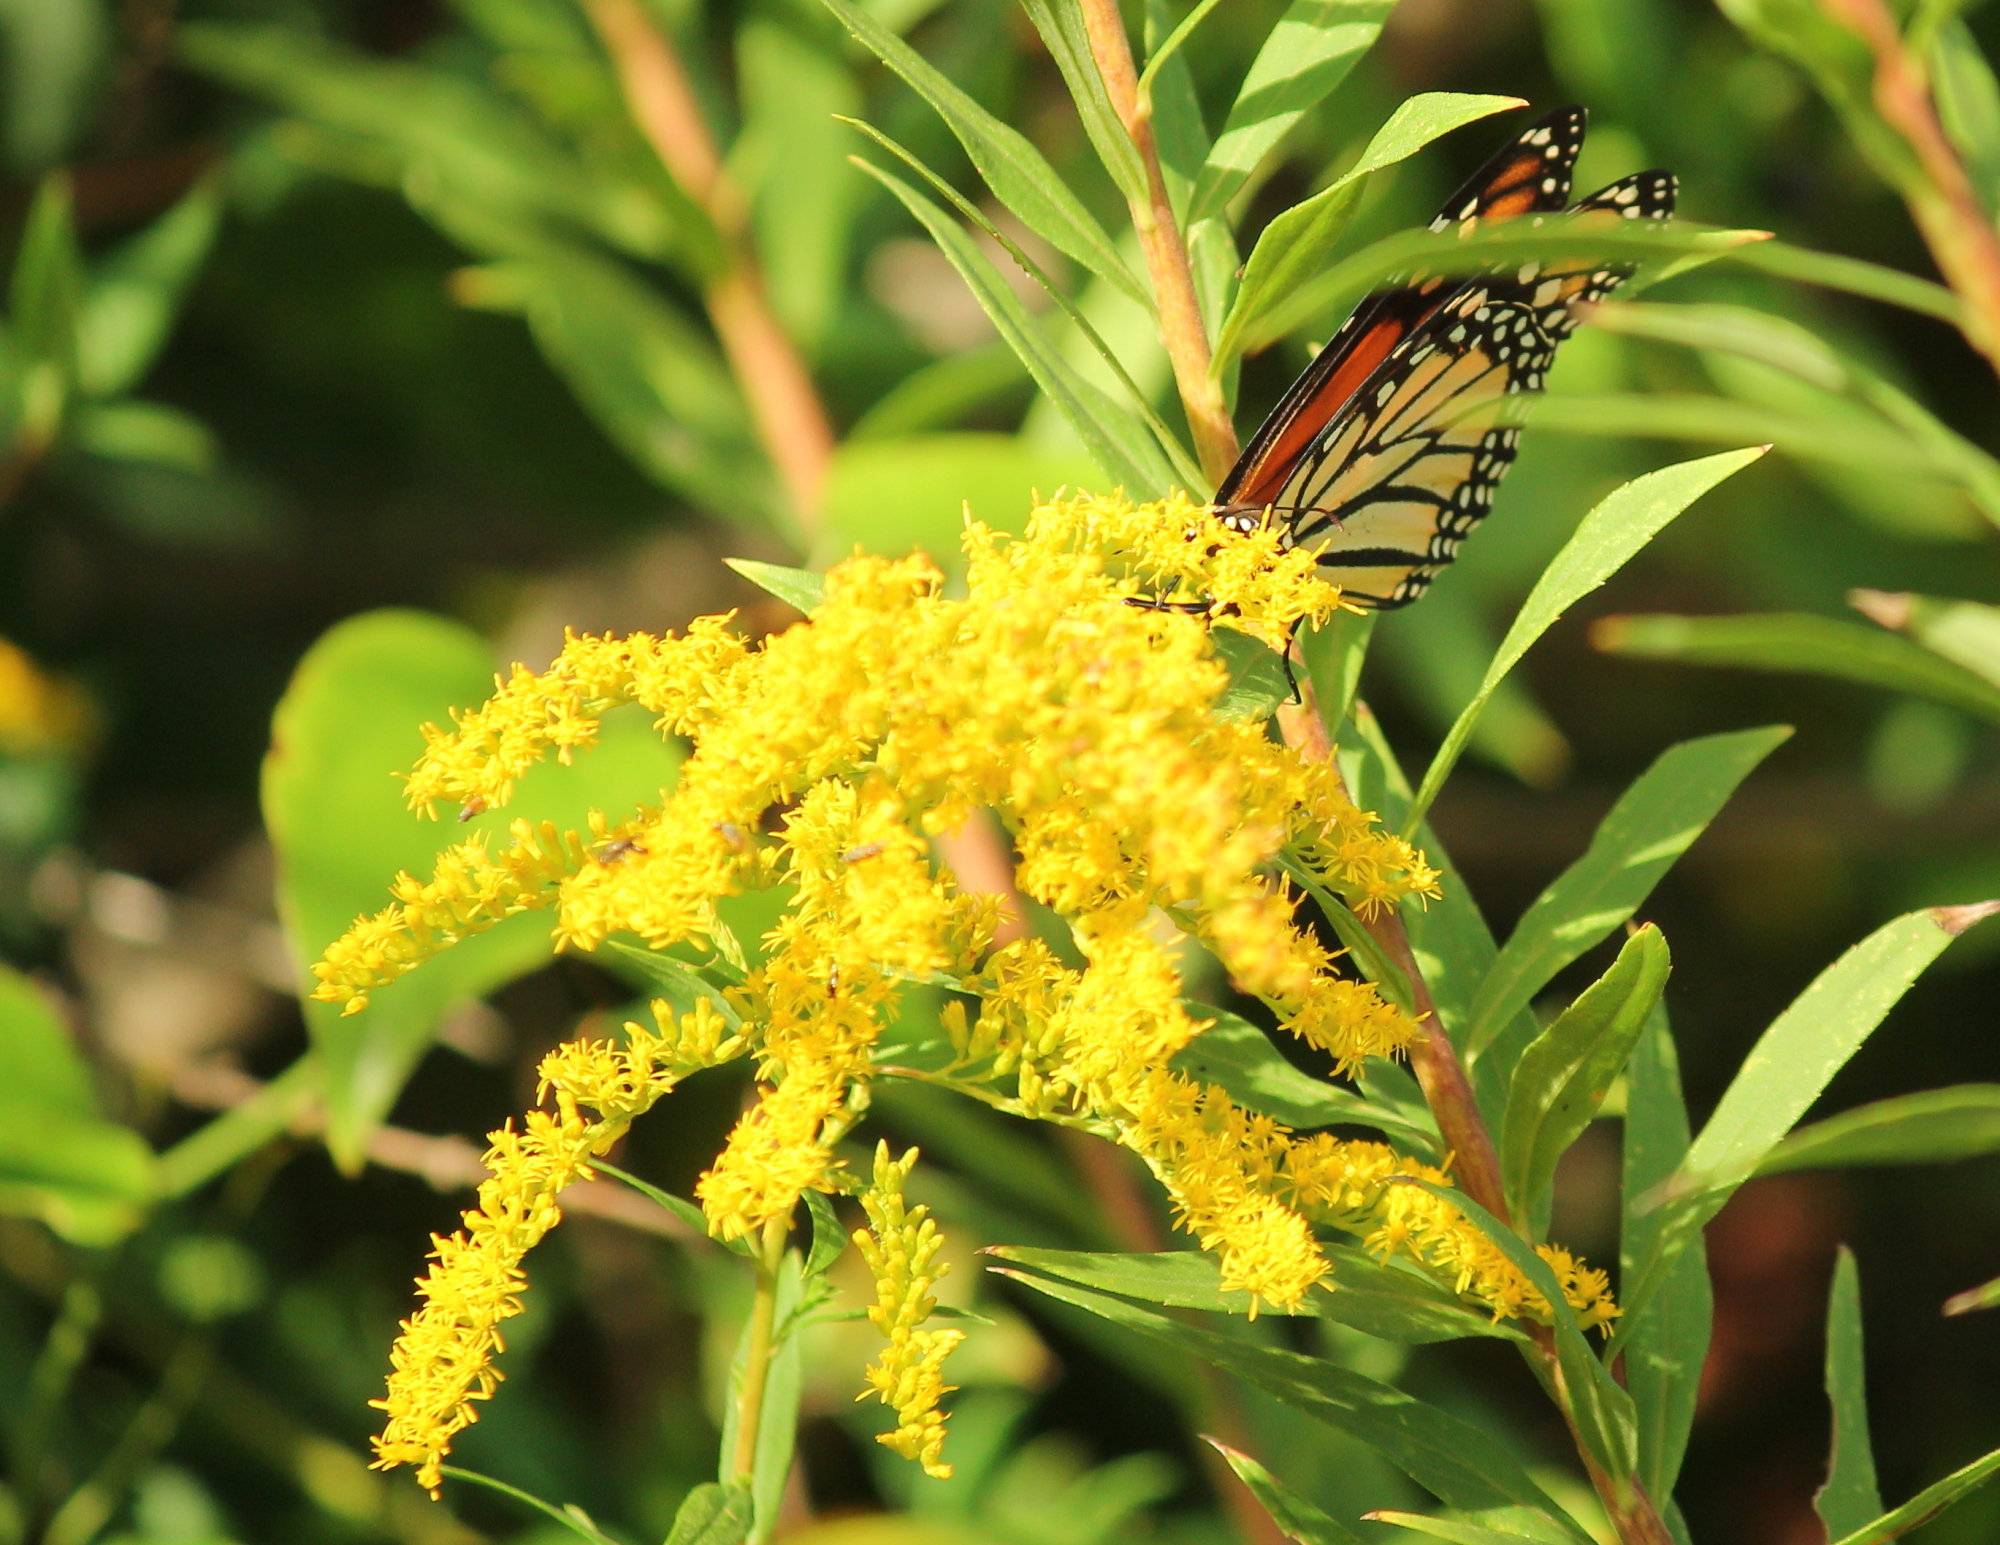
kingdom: Animalia
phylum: Arthropoda
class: Insecta
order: Lepidoptera
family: Nymphalidae
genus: Danaus
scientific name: Danaus plexippus
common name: Monarch
